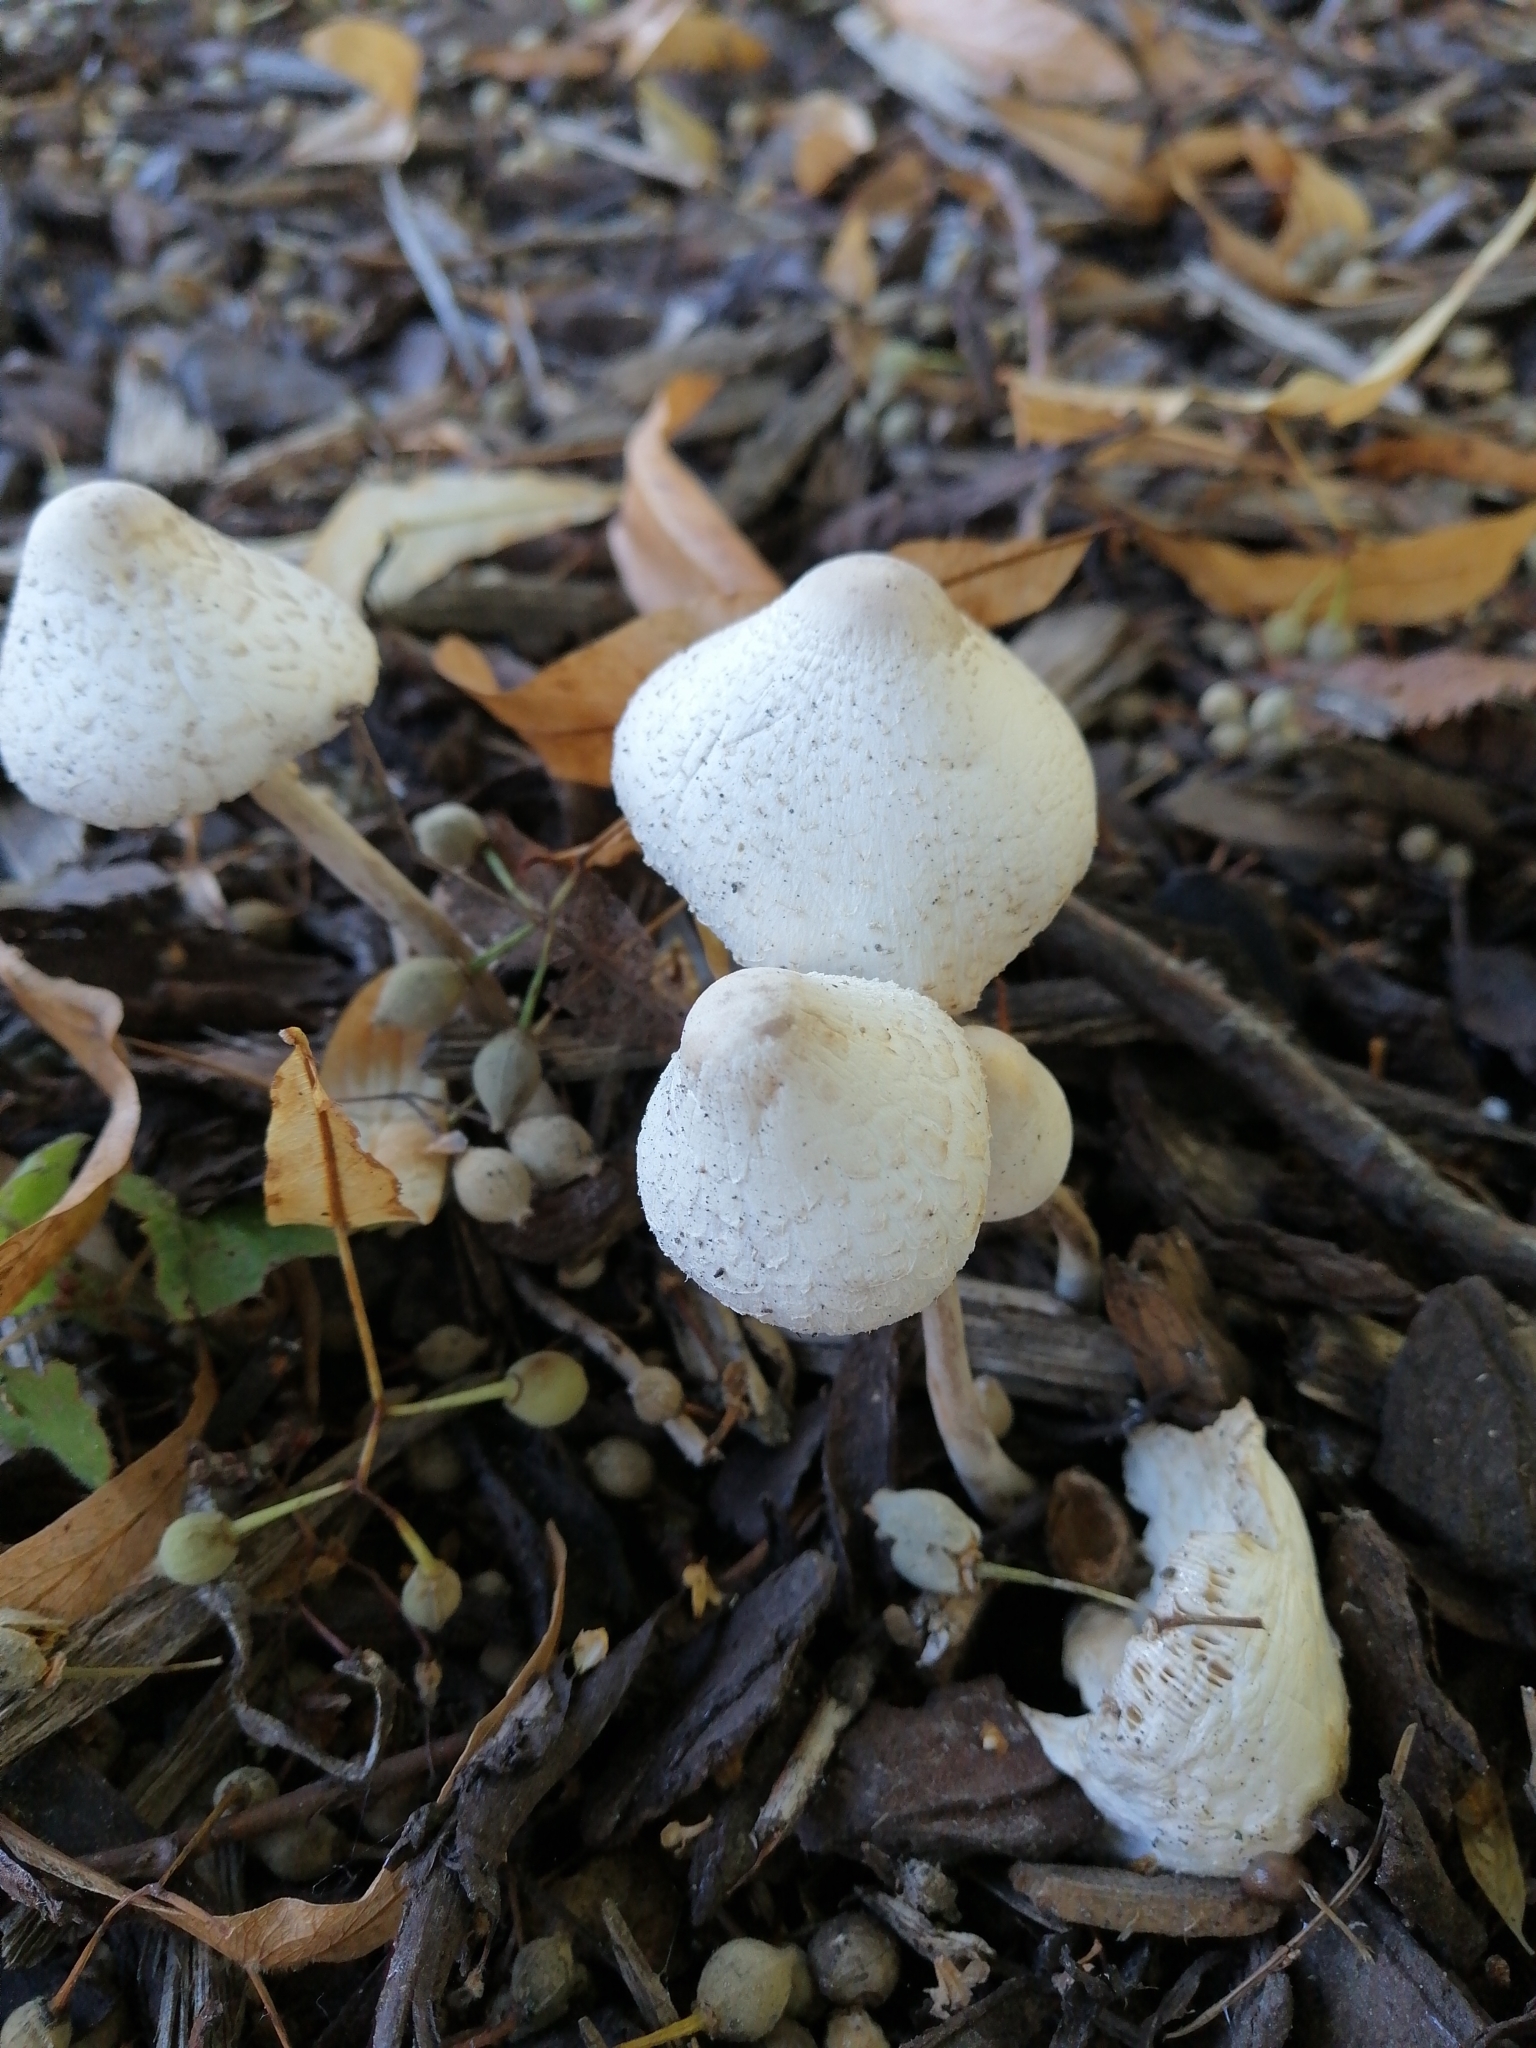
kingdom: Fungi
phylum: Basidiomycota
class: Agaricomycetes
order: Agaricales
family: Agaricaceae
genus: Leucocoprinus
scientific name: Leucocoprinus cepistipes
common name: Onion-stalk parasol
